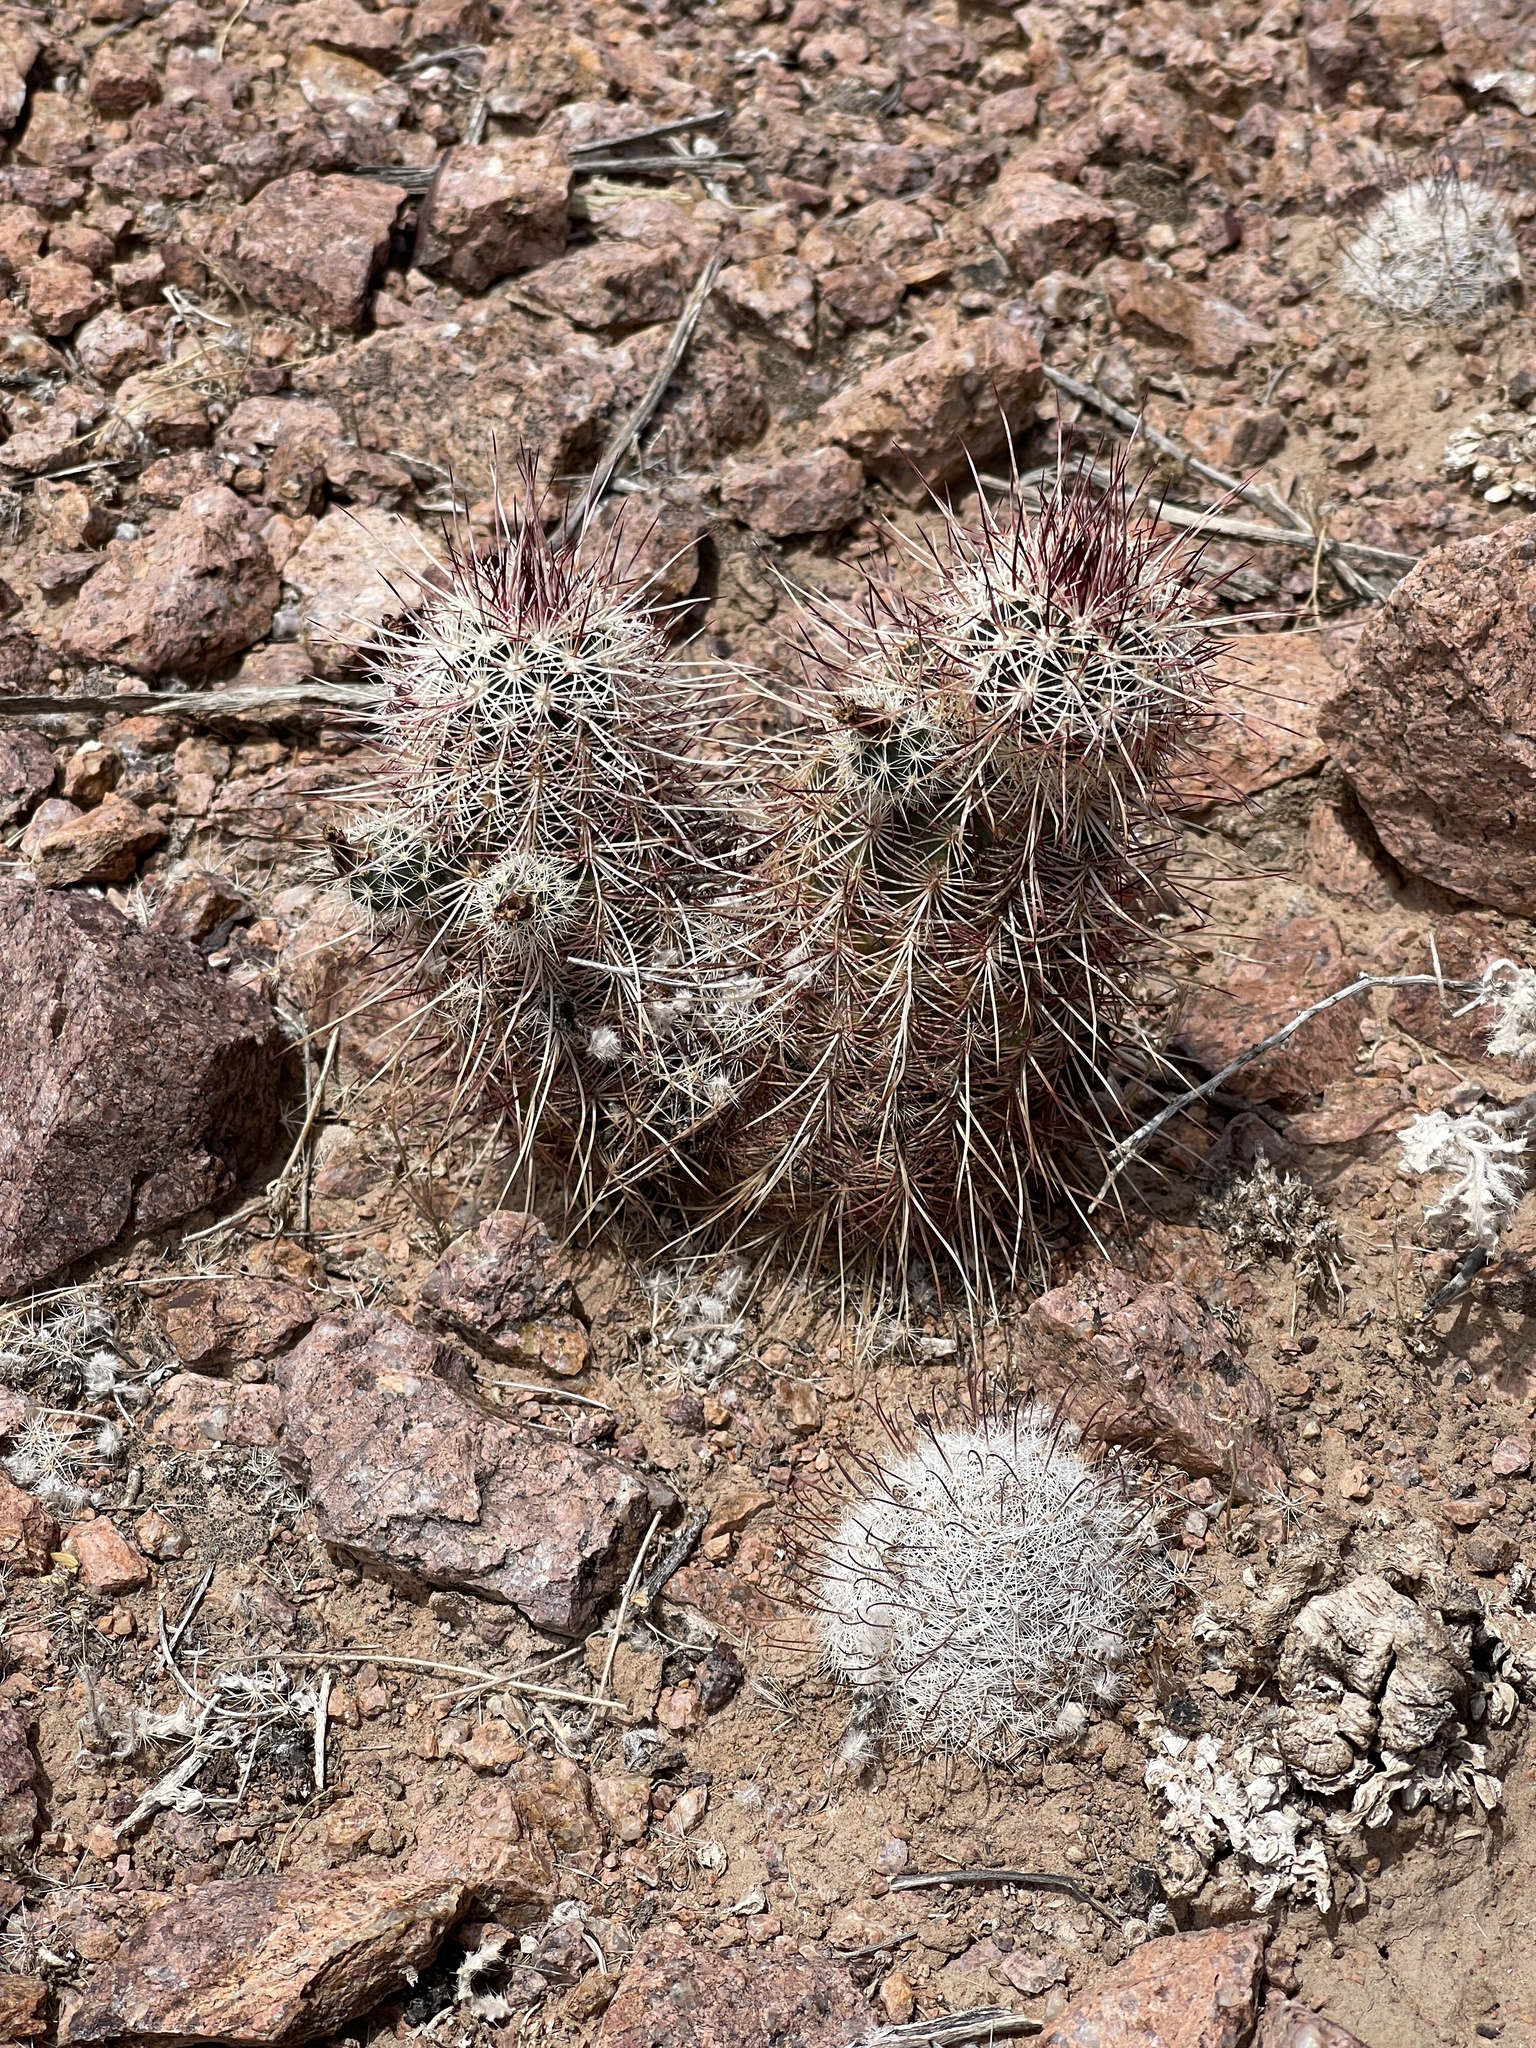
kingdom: Plantae
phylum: Tracheophyta
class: Magnoliopsida
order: Caryophyllales
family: Cactaceae
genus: Echinocereus
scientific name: Echinocereus viridiflorus
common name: Nylon hedgehog cactus
